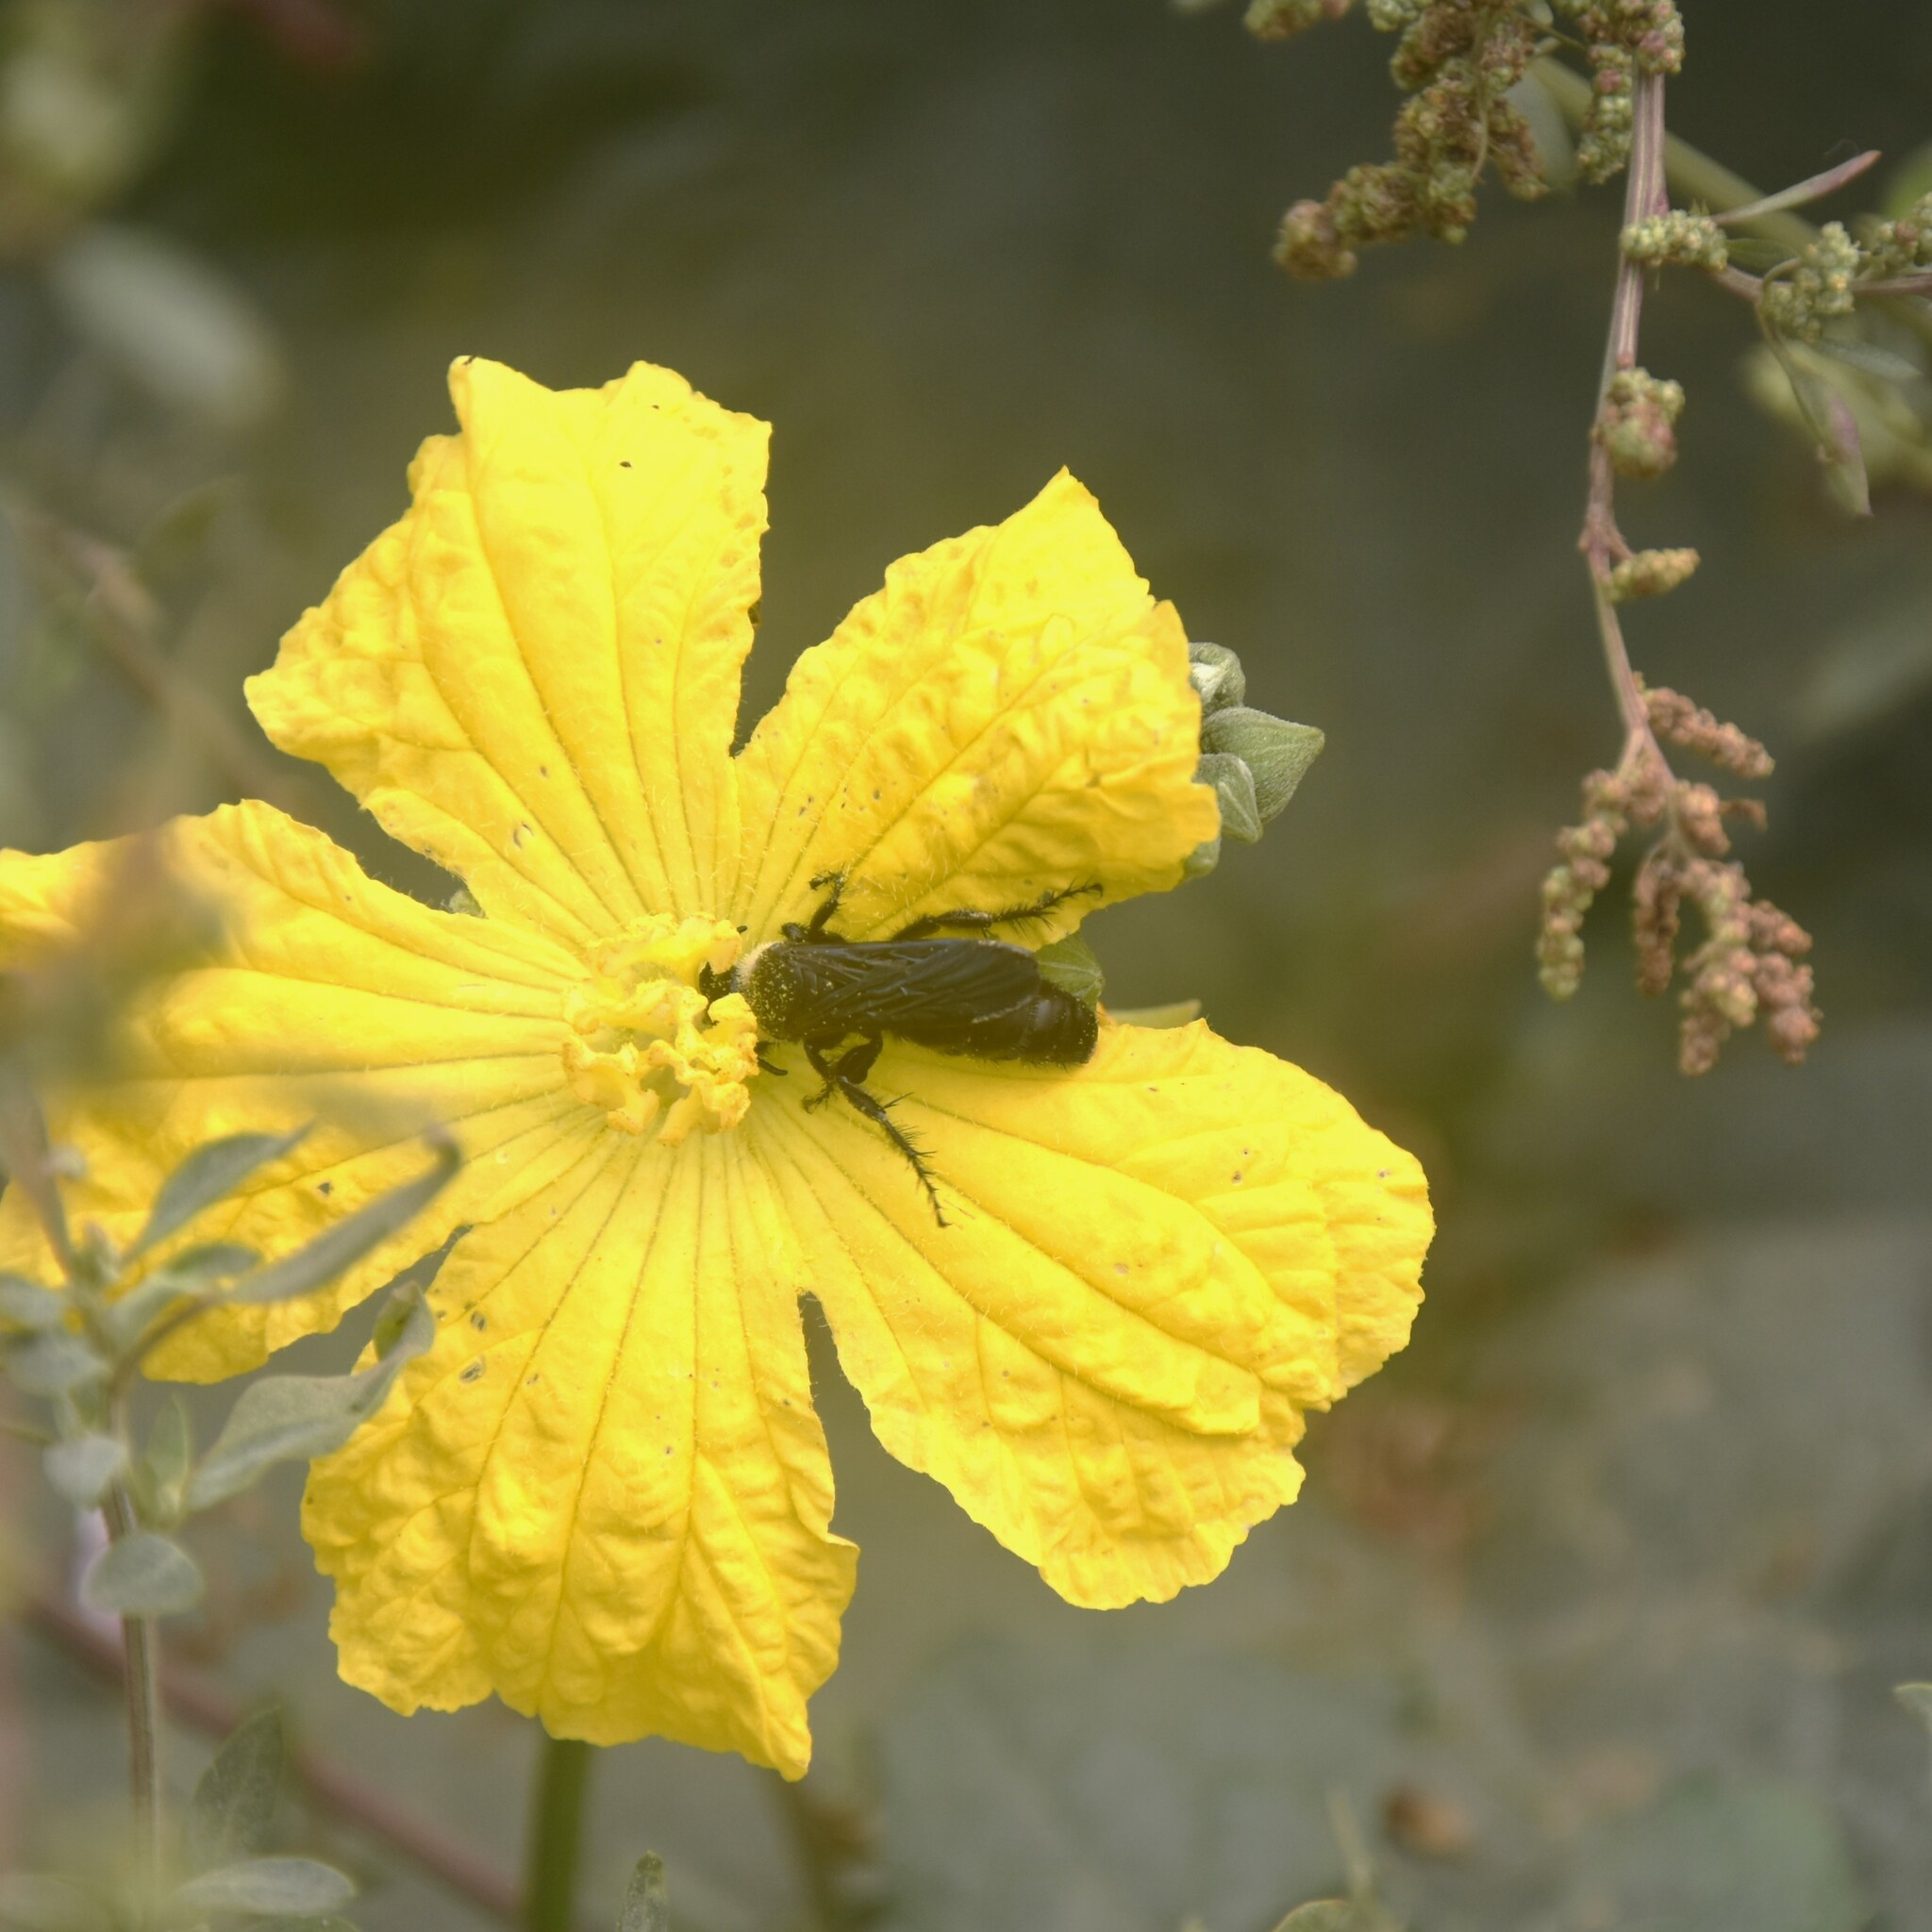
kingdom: Animalia
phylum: Arthropoda
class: Insecta
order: Hymenoptera
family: Scoliidae
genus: Campsomeriella
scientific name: Campsomeriella collaris
